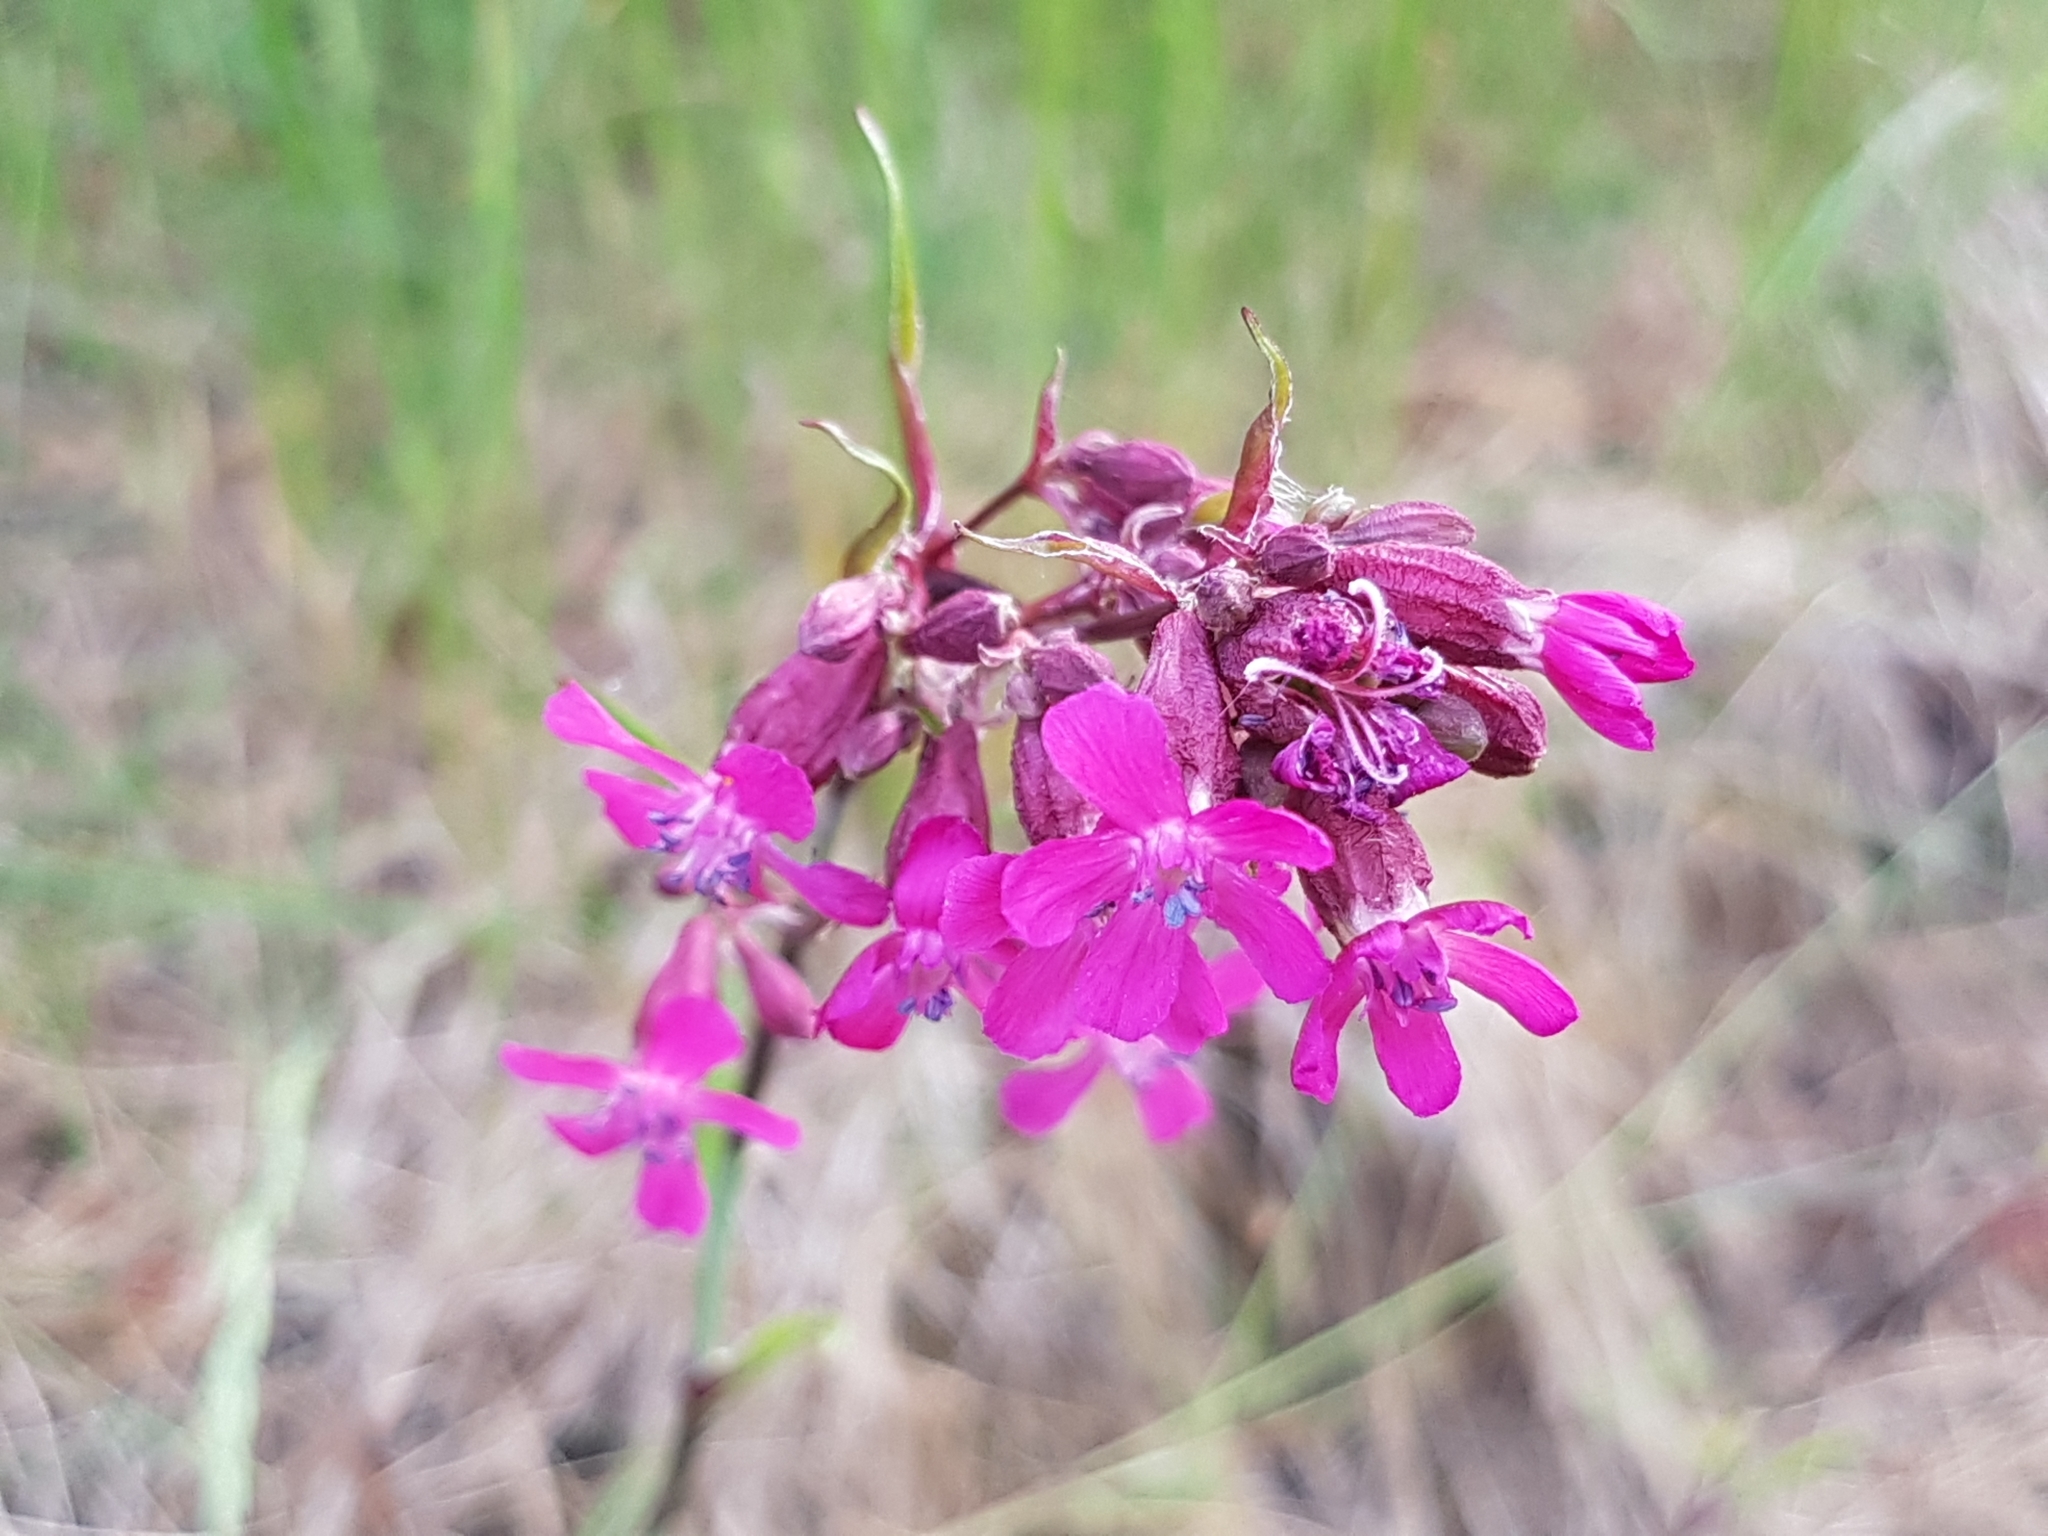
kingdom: Plantae
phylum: Tracheophyta
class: Magnoliopsida
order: Caryophyllales
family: Caryophyllaceae
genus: Viscaria
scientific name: Viscaria vulgaris
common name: Clammy campion
